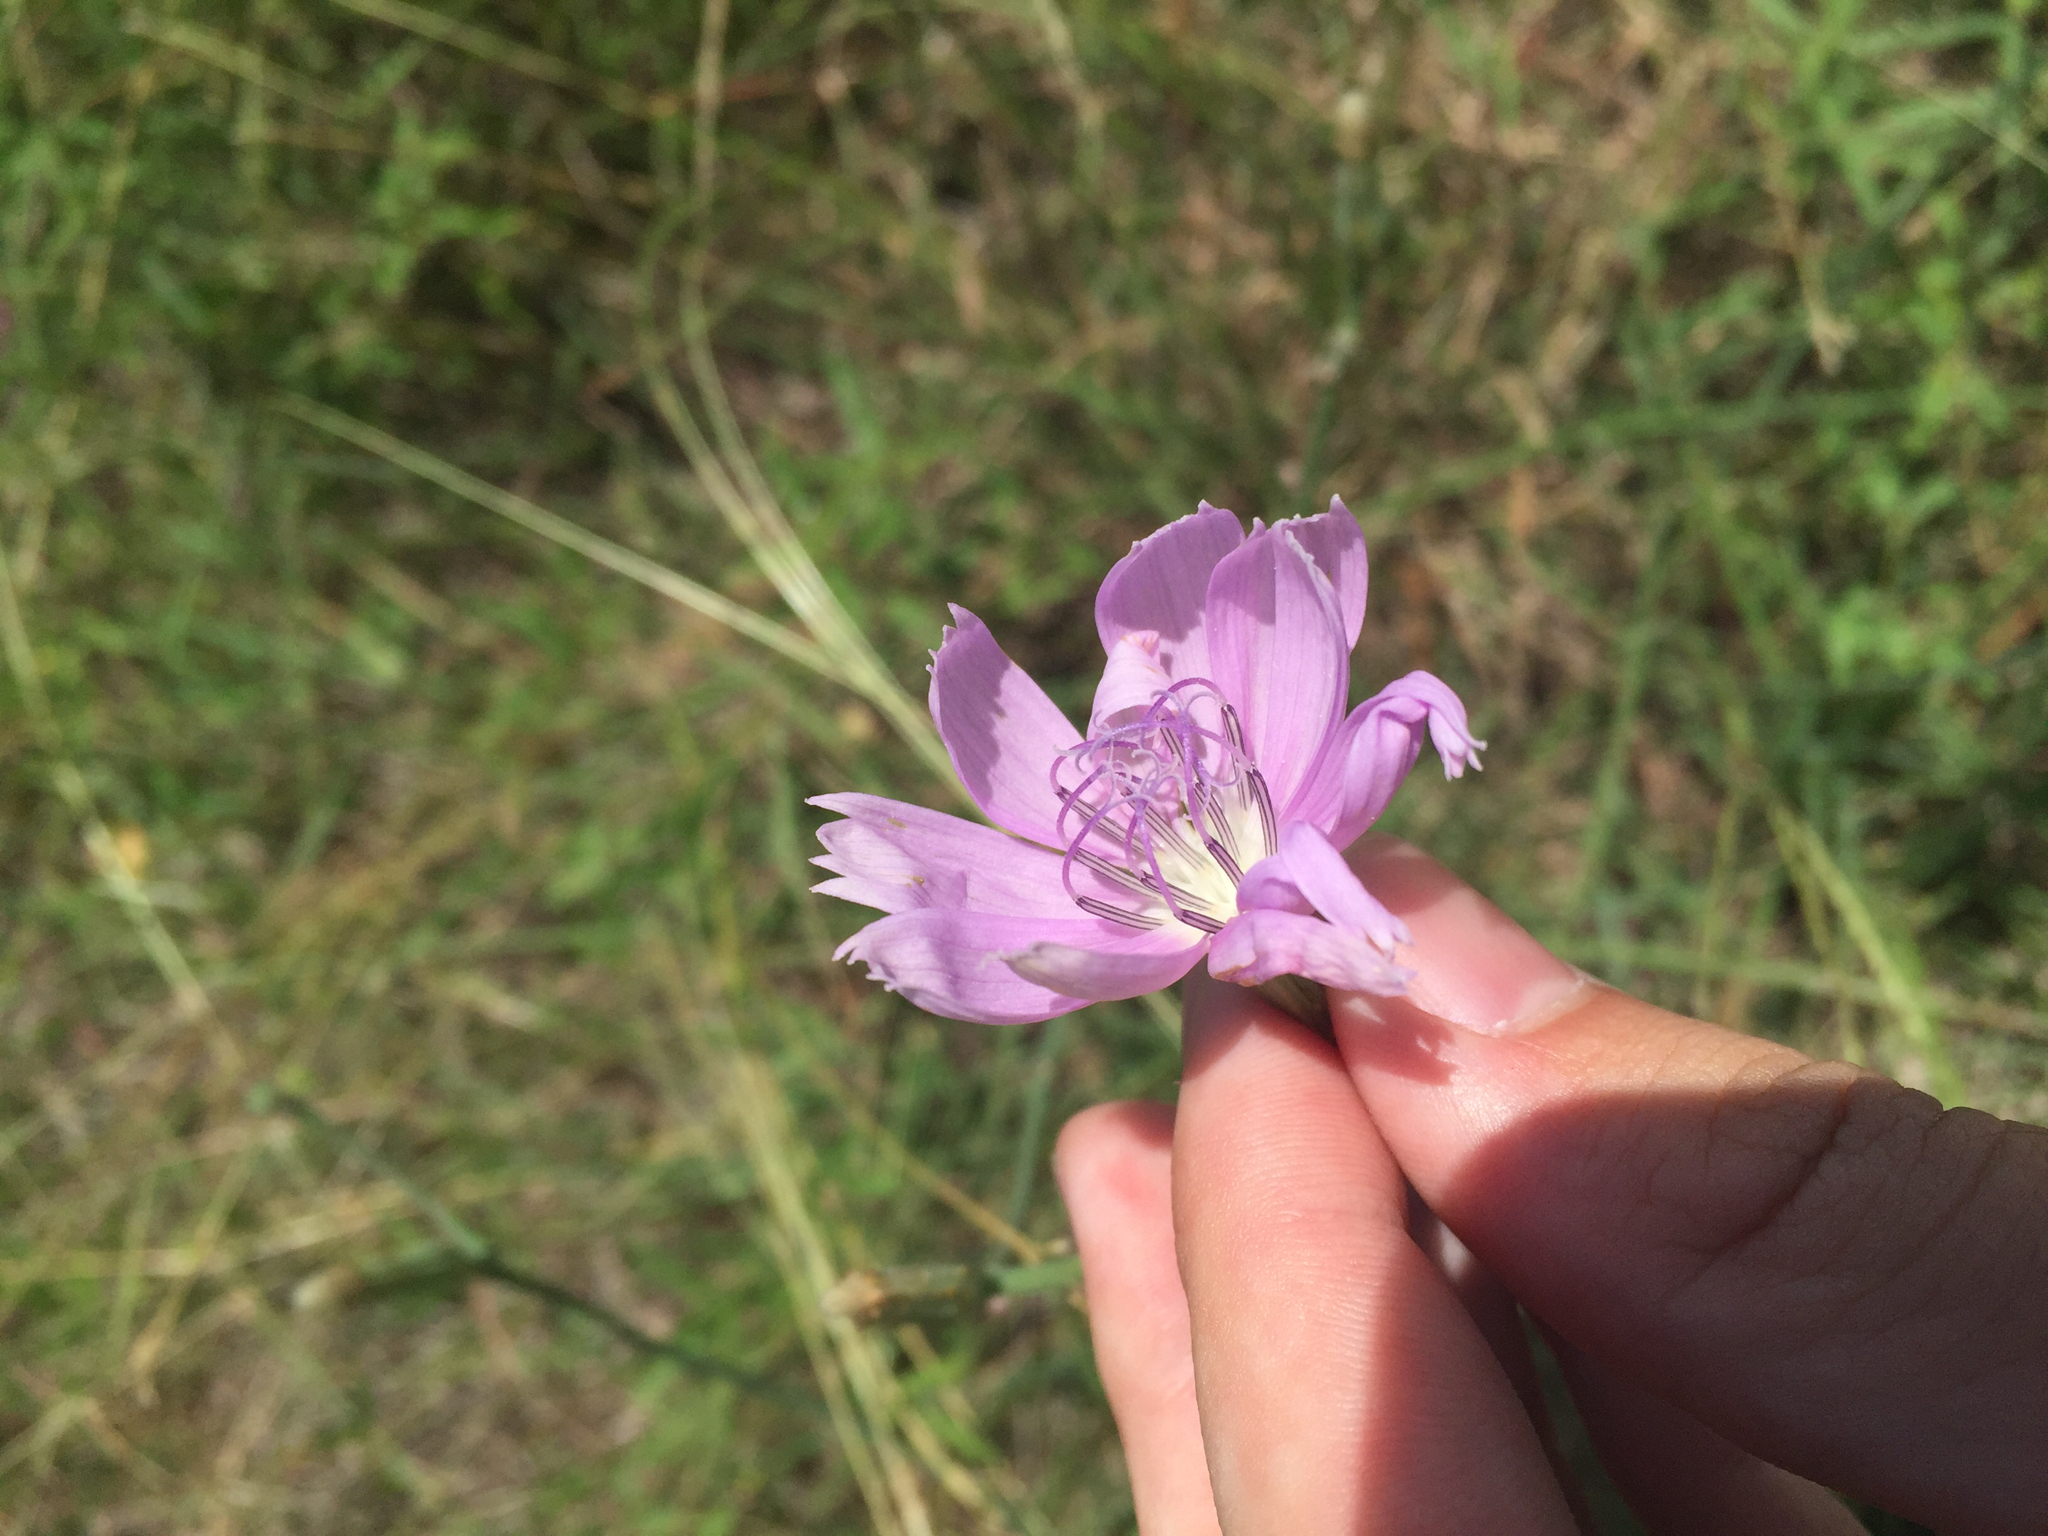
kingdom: Plantae
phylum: Tracheophyta
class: Magnoliopsida
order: Asterales
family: Asteraceae
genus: Lygodesmia
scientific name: Lygodesmia texana
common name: Texas skeleton-plant
